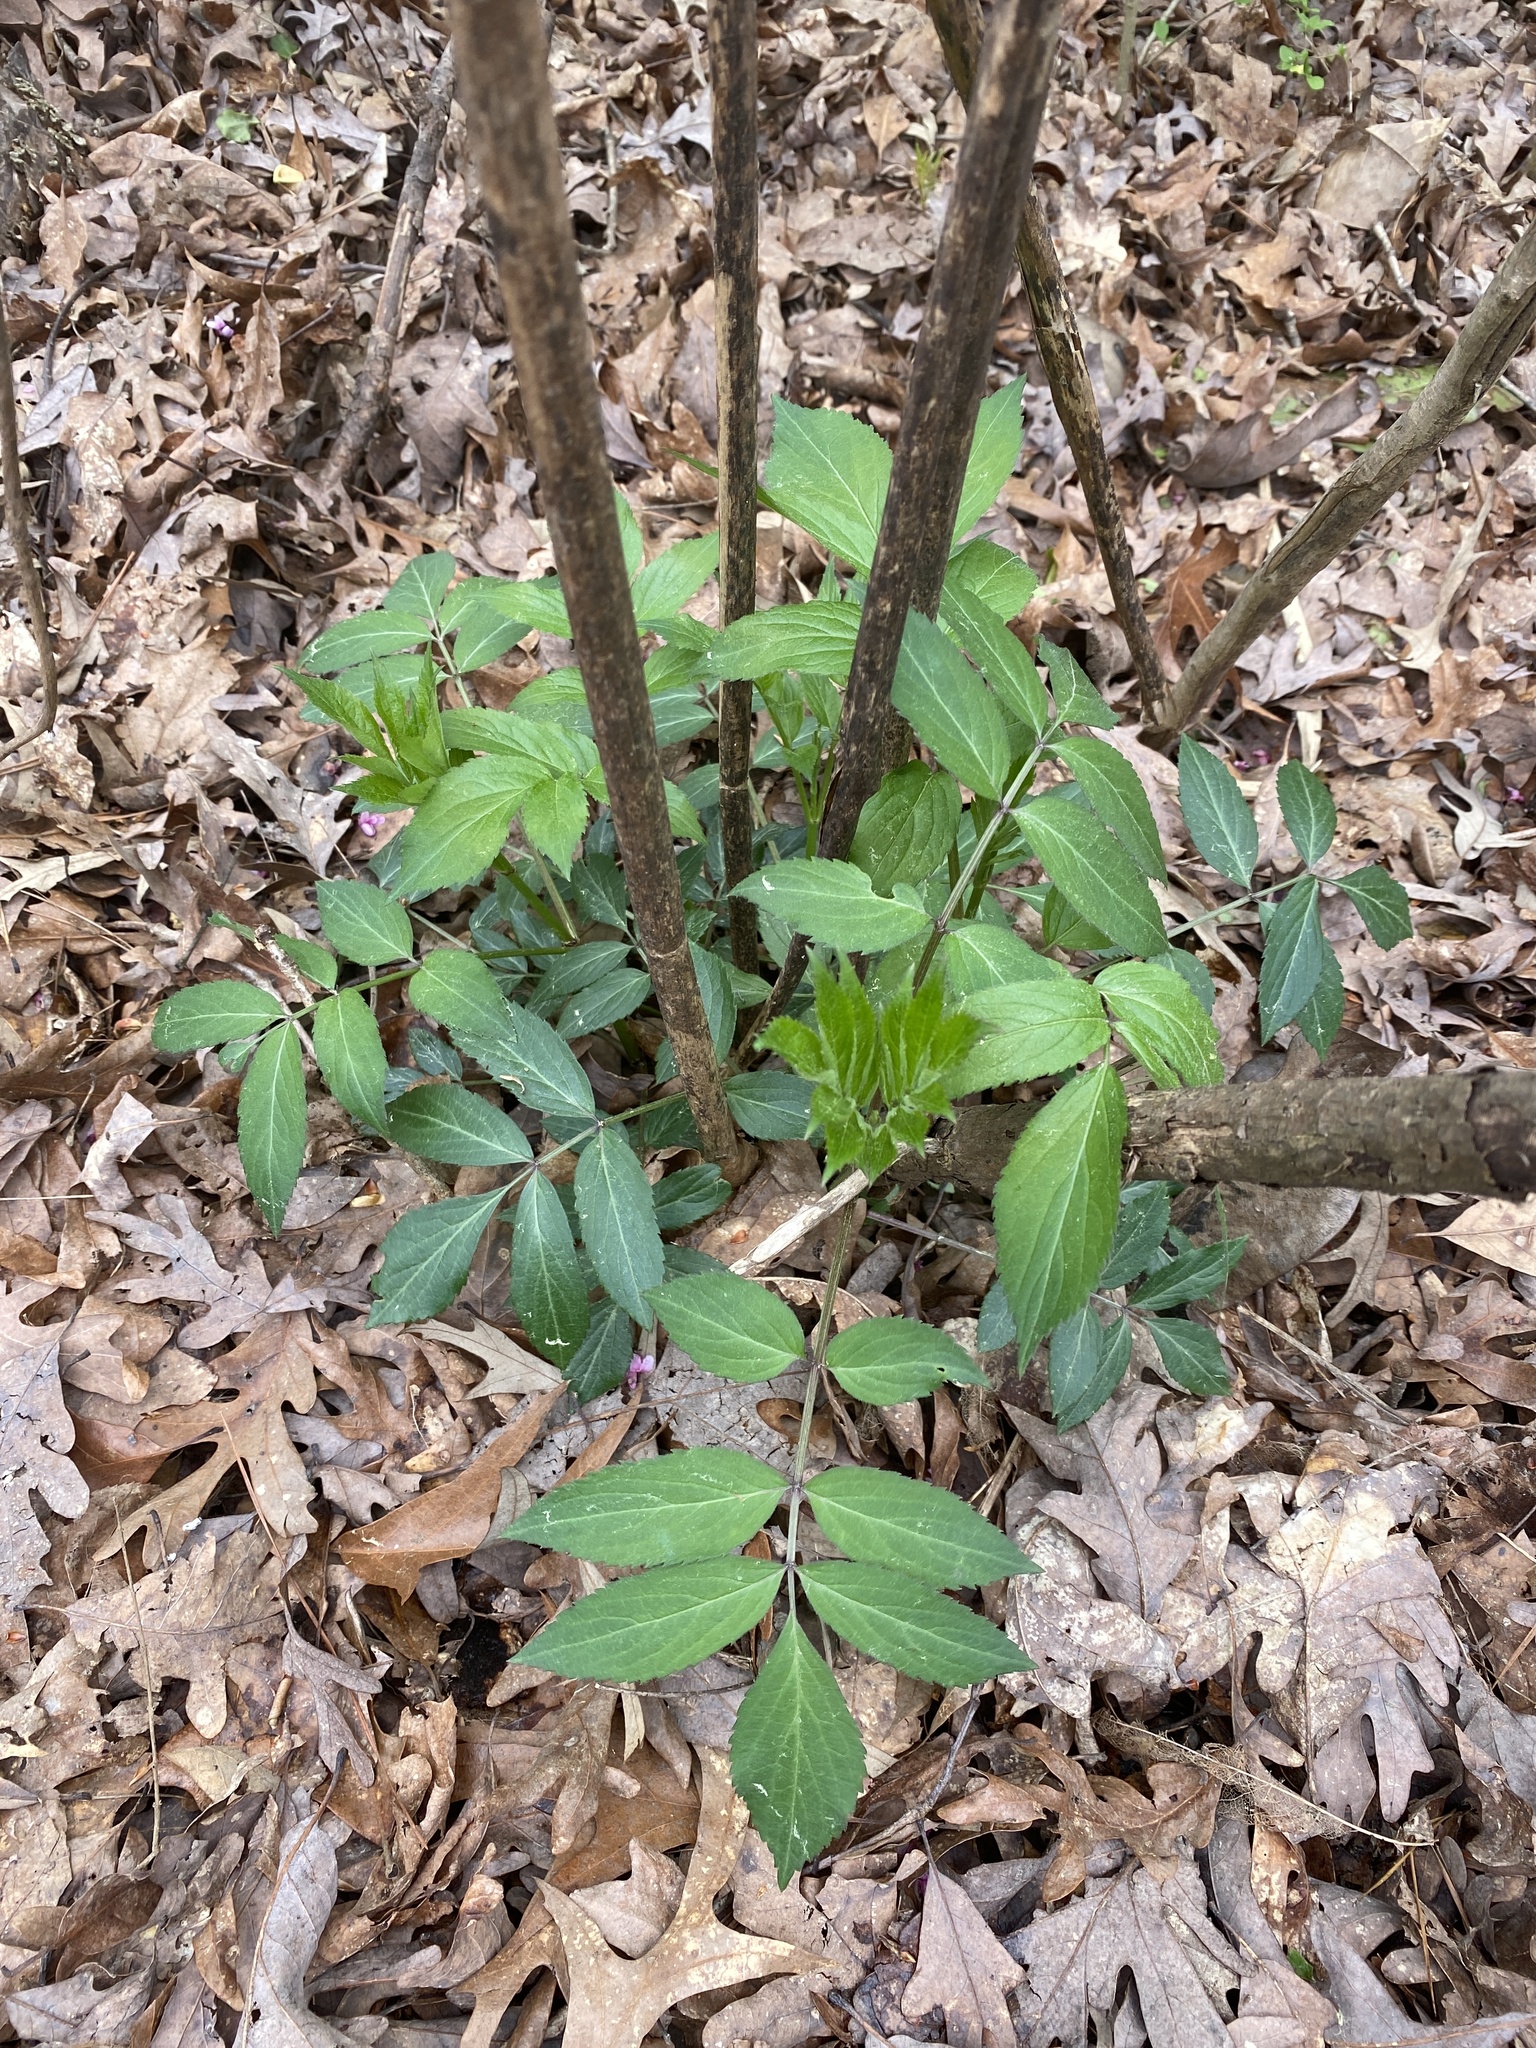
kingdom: Plantae
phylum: Tracheophyta
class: Magnoliopsida
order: Dipsacales
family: Viburnaceae
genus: Sambucus
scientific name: Sambucus canadensis
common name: American elder
